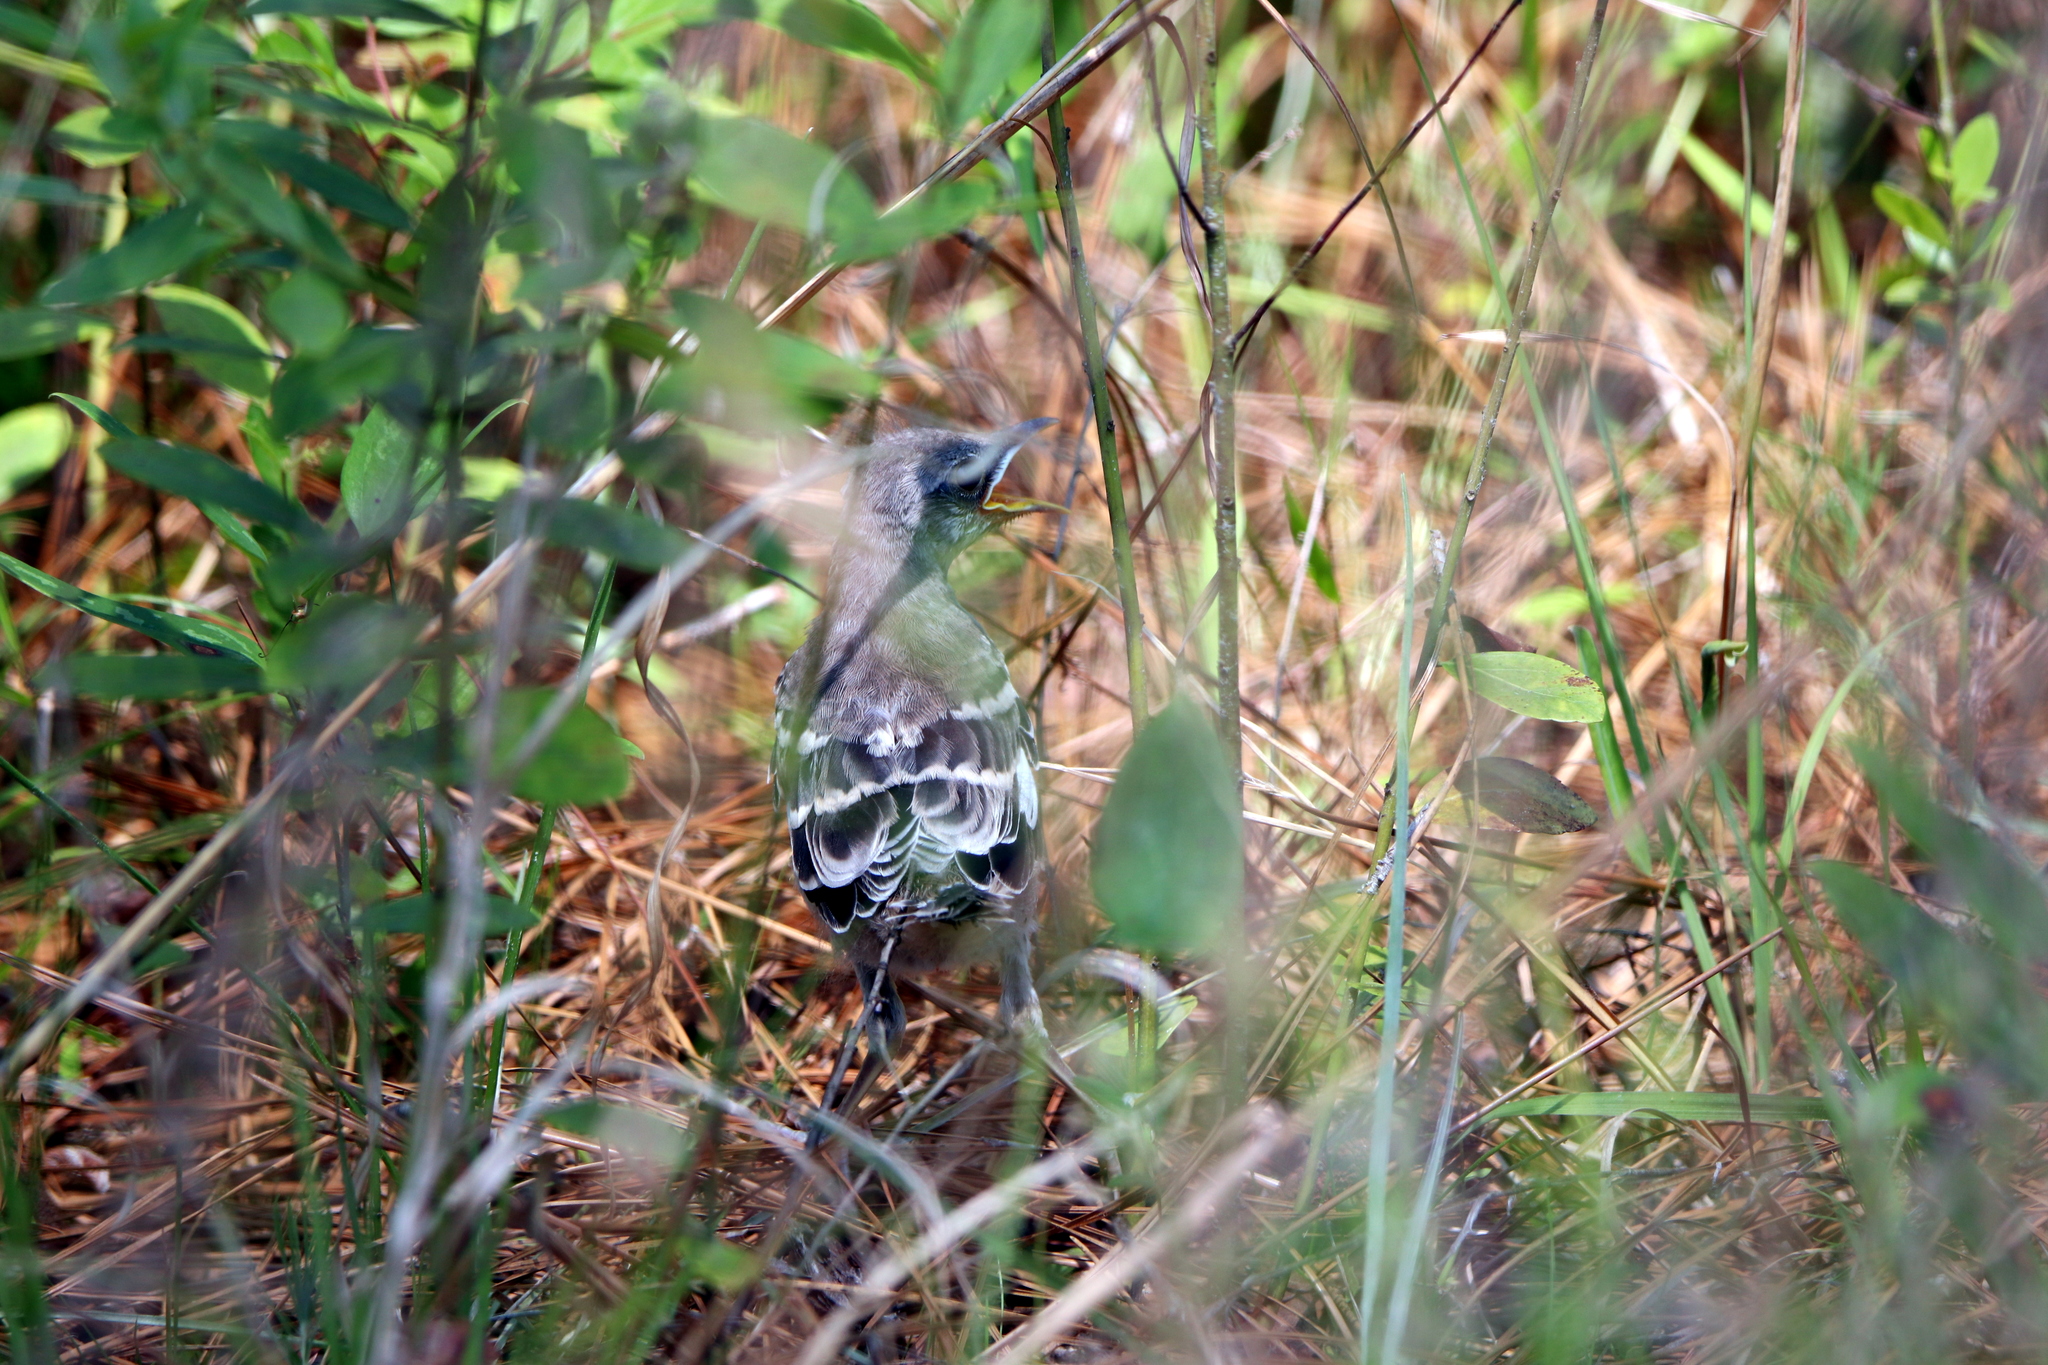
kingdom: Animalia
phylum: Chordata
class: Aves
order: Passeriformes
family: Mimidae
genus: Mimus
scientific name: Mimus polyglottos
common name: Northern mockingbird
